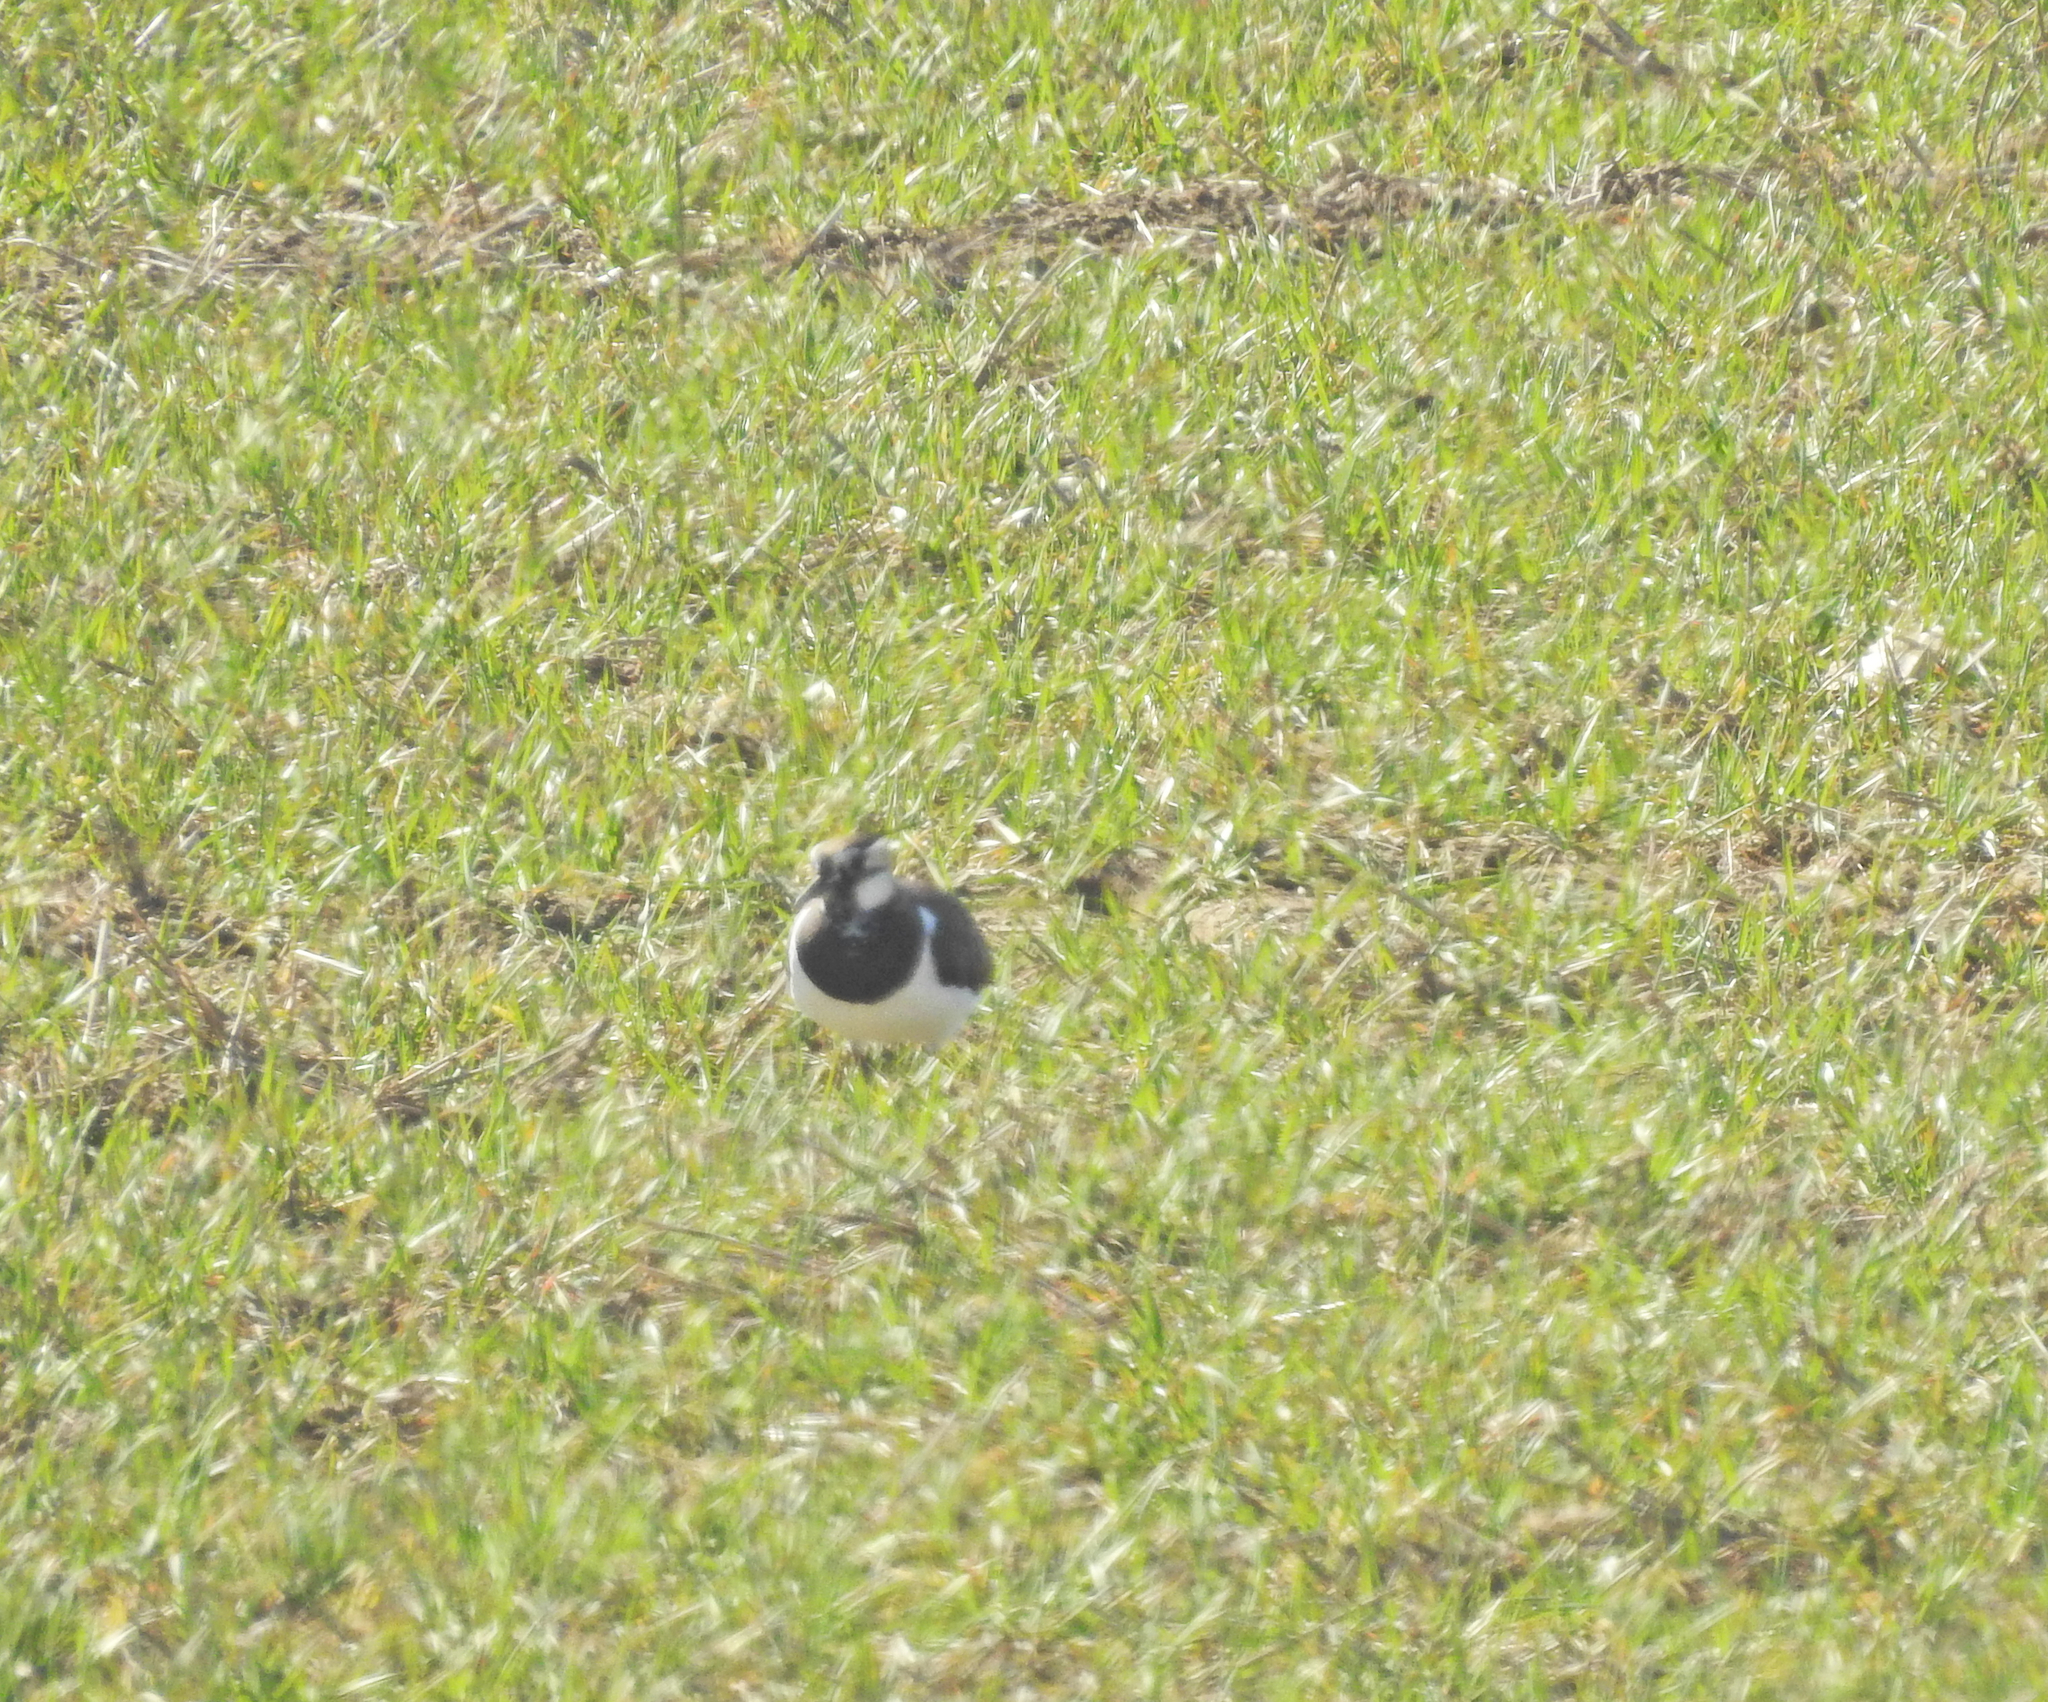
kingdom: Animalia
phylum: Chordata
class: Aves
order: Charadriiformes
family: Charadriidae
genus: Vanellus
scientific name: Vanellus vanellus
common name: Northern lapwing
